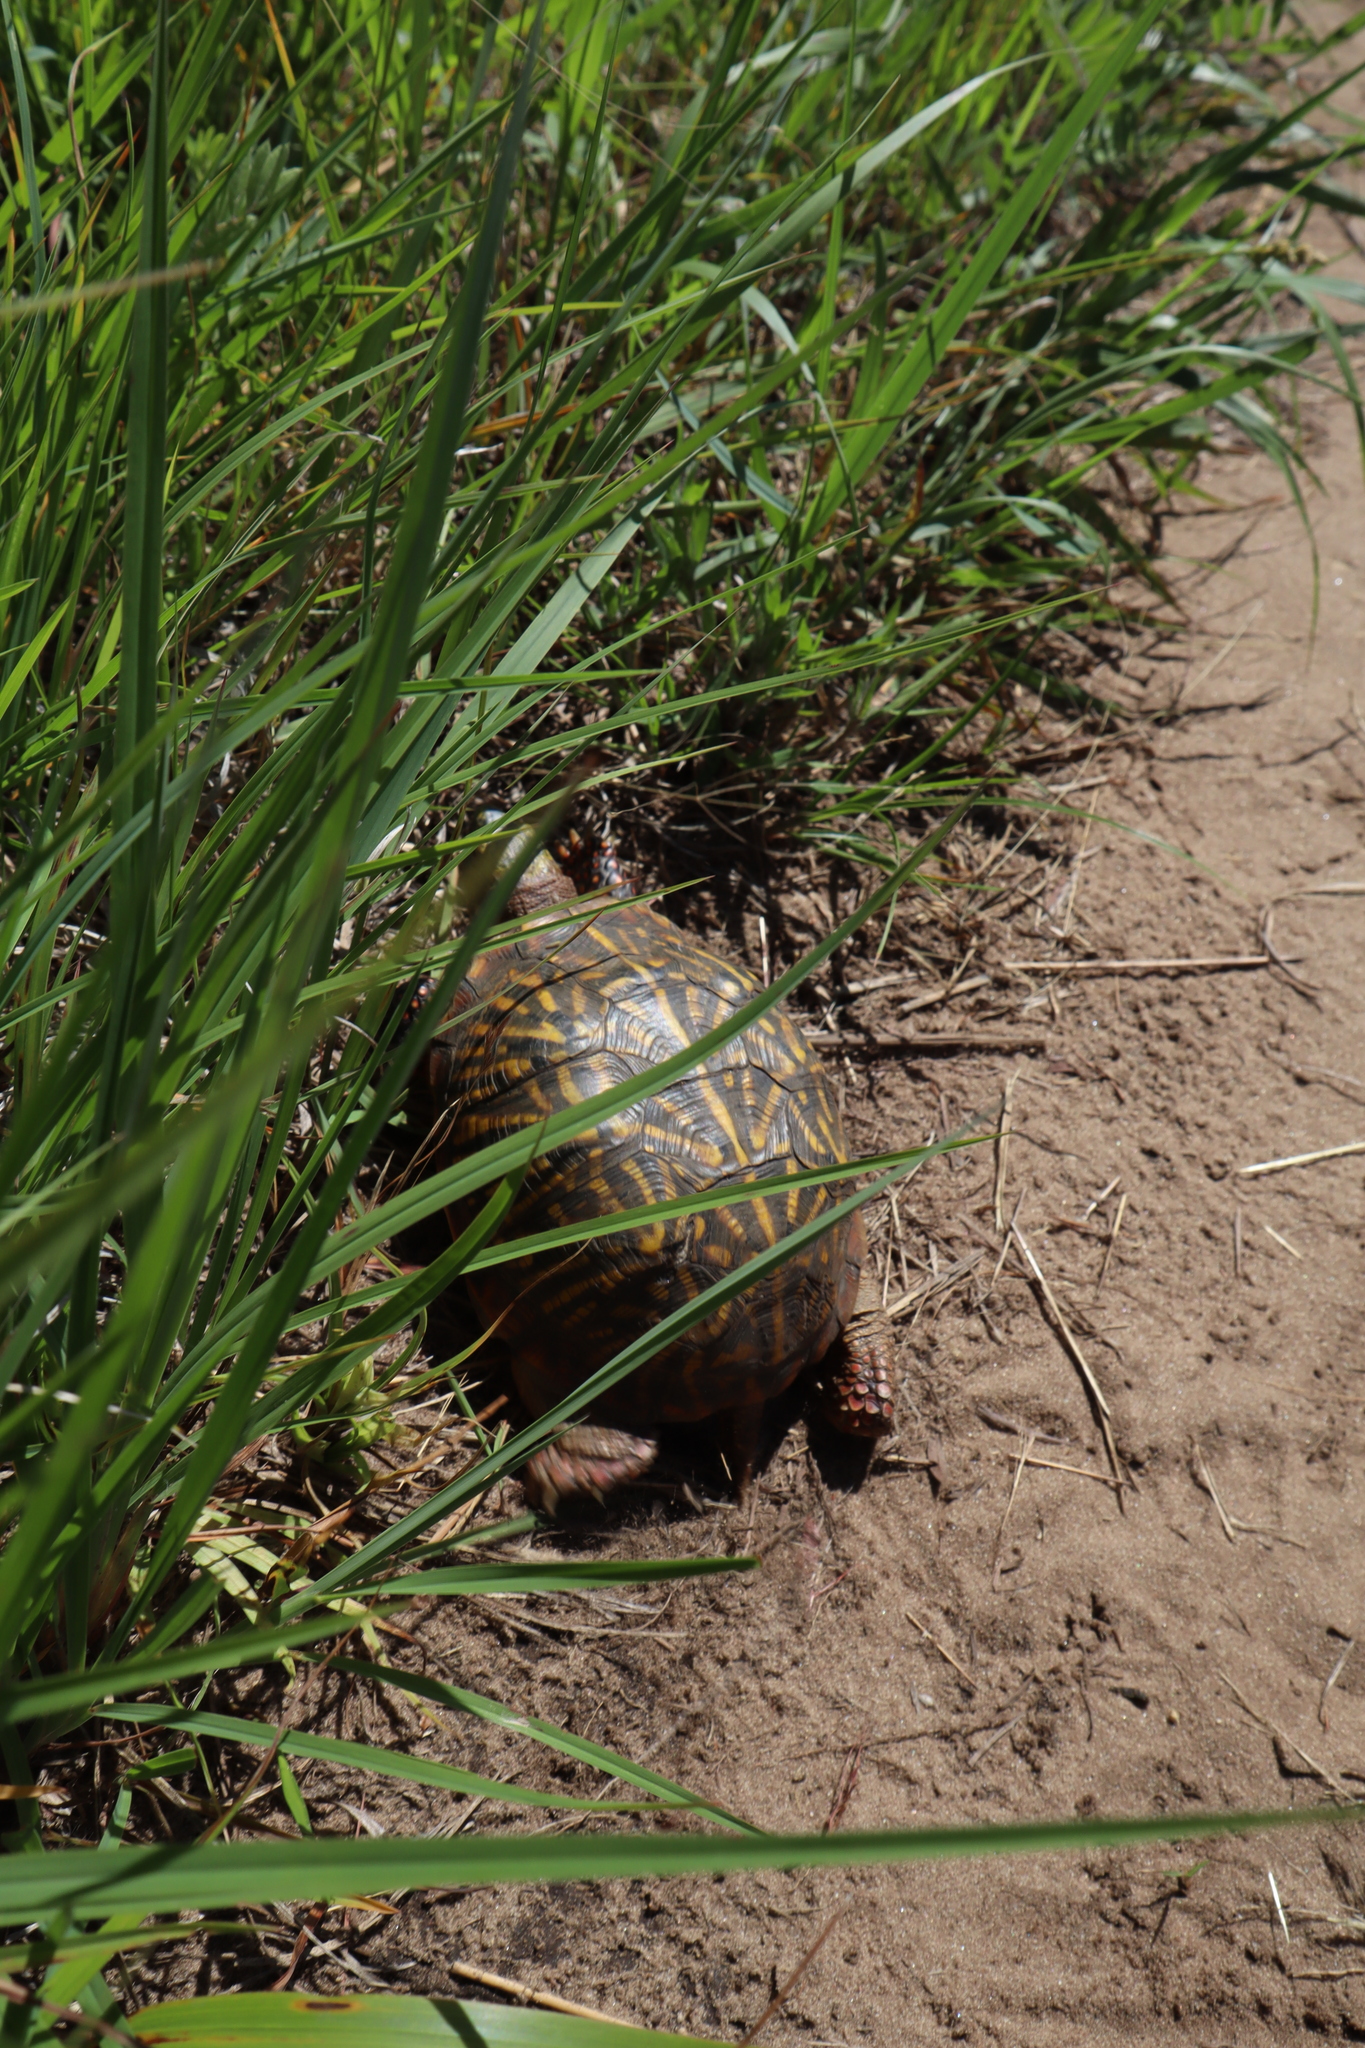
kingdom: Animalia
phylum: Chordata
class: Testudines
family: Emydidae
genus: Terrapene
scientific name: Terrapene ornata
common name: Western box turtle
